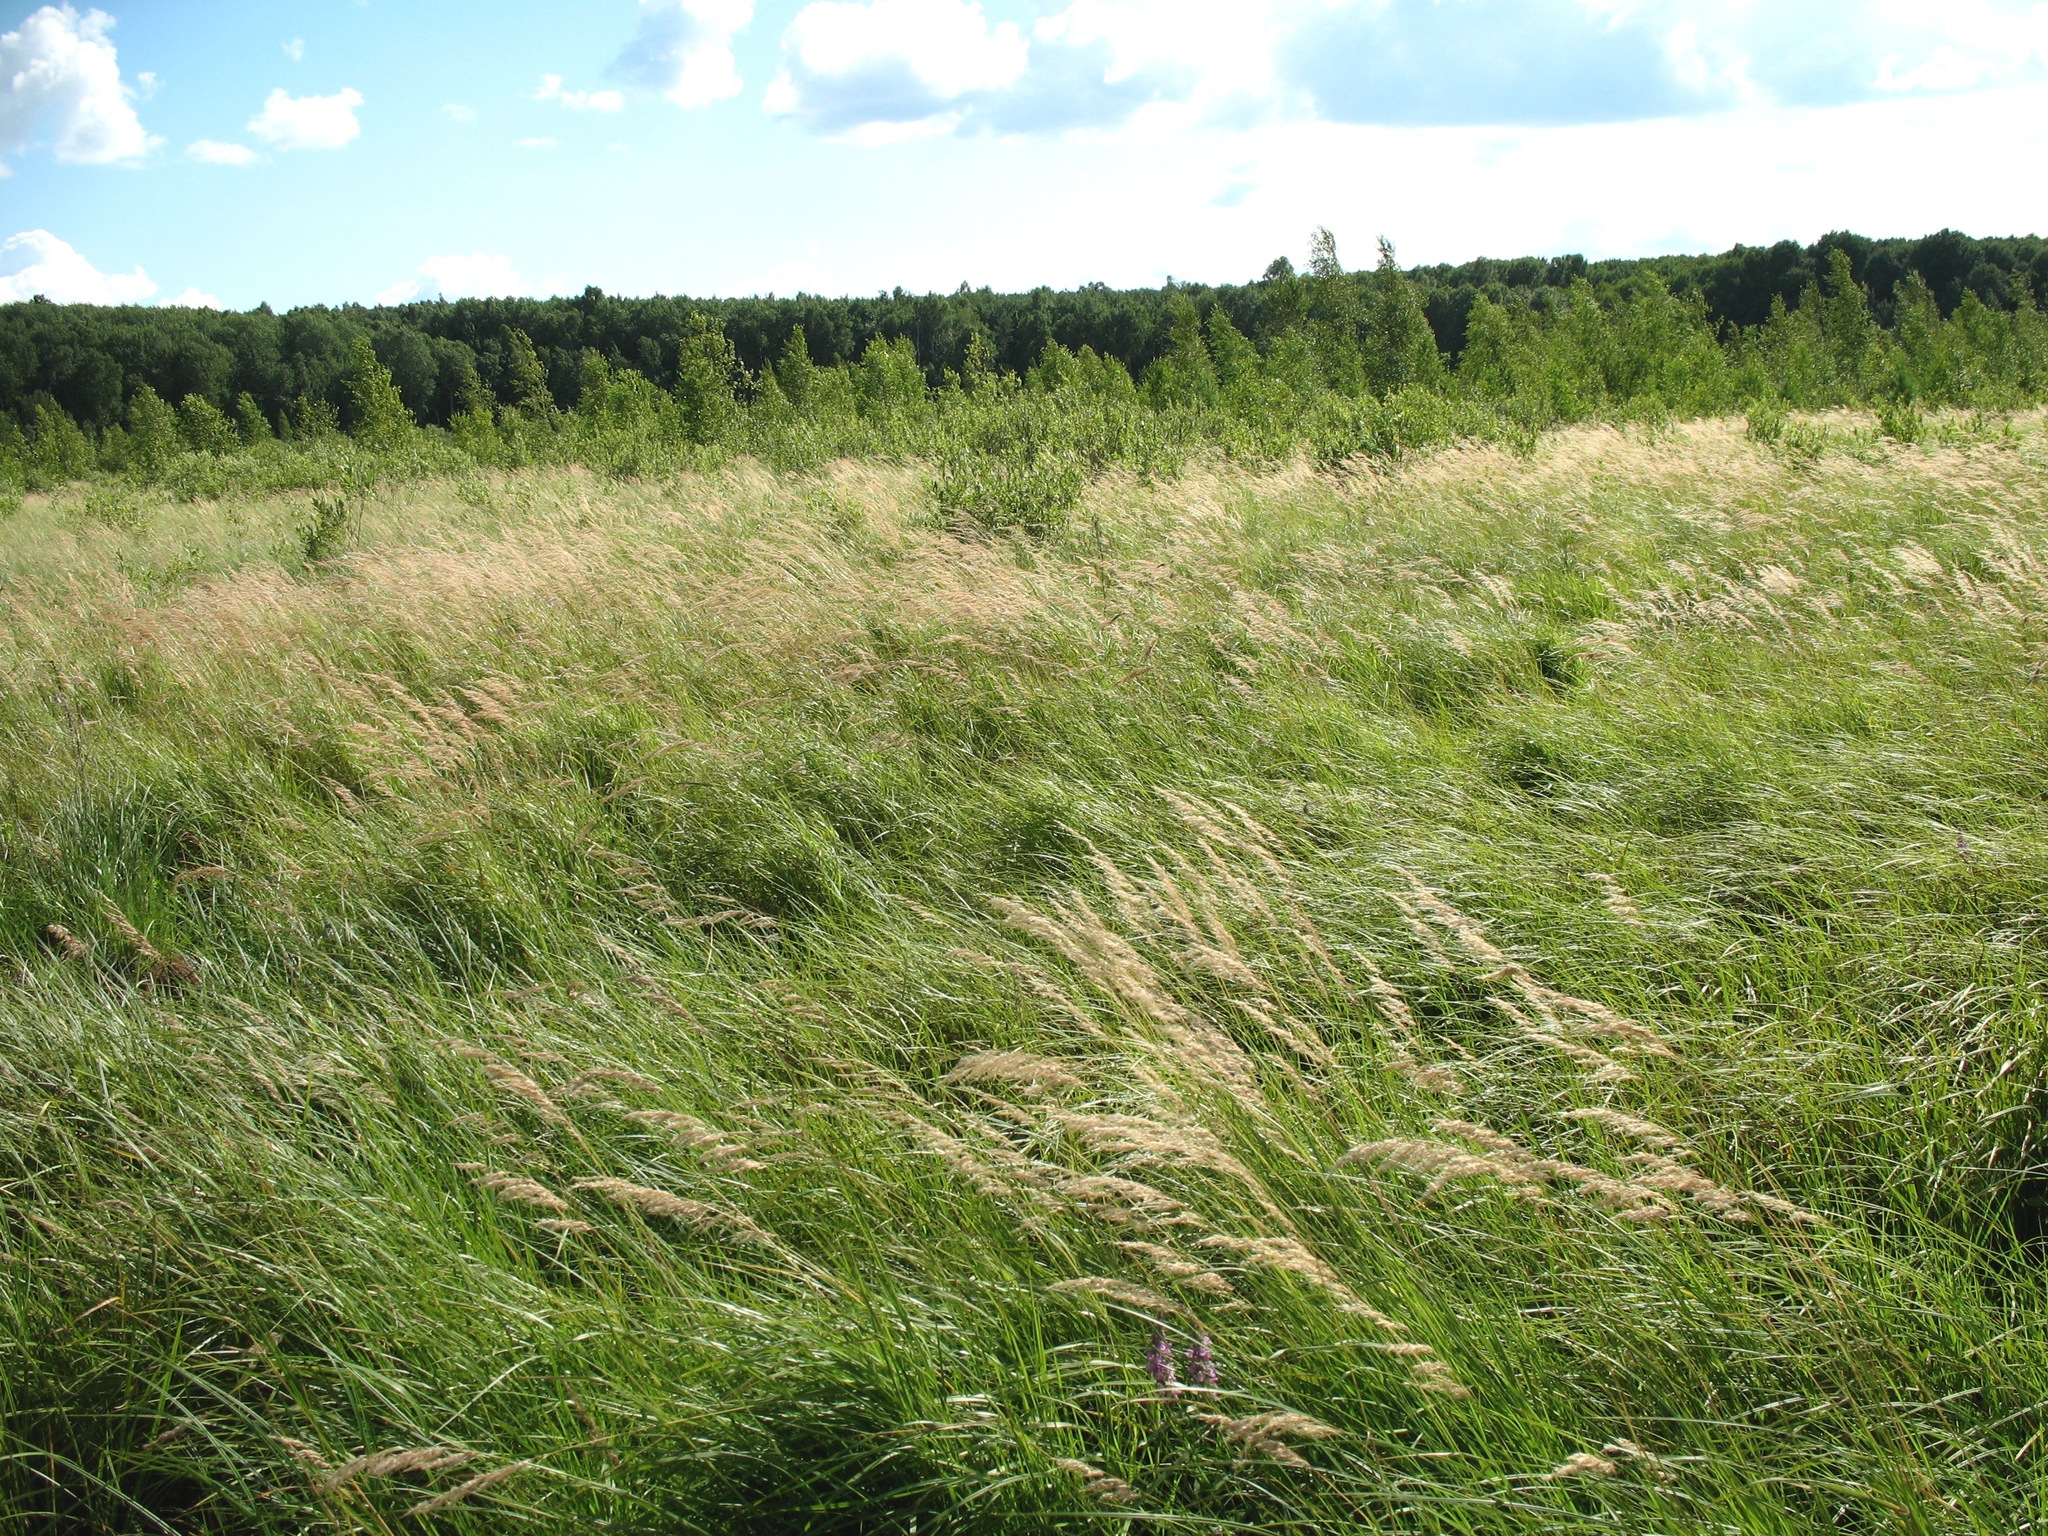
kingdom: Plantae
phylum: Tracheophyta
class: Liliopsida
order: Poales
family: Poaceae
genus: Calamagrostis
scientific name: Calamagrostis canescens
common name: Purple small-reed
